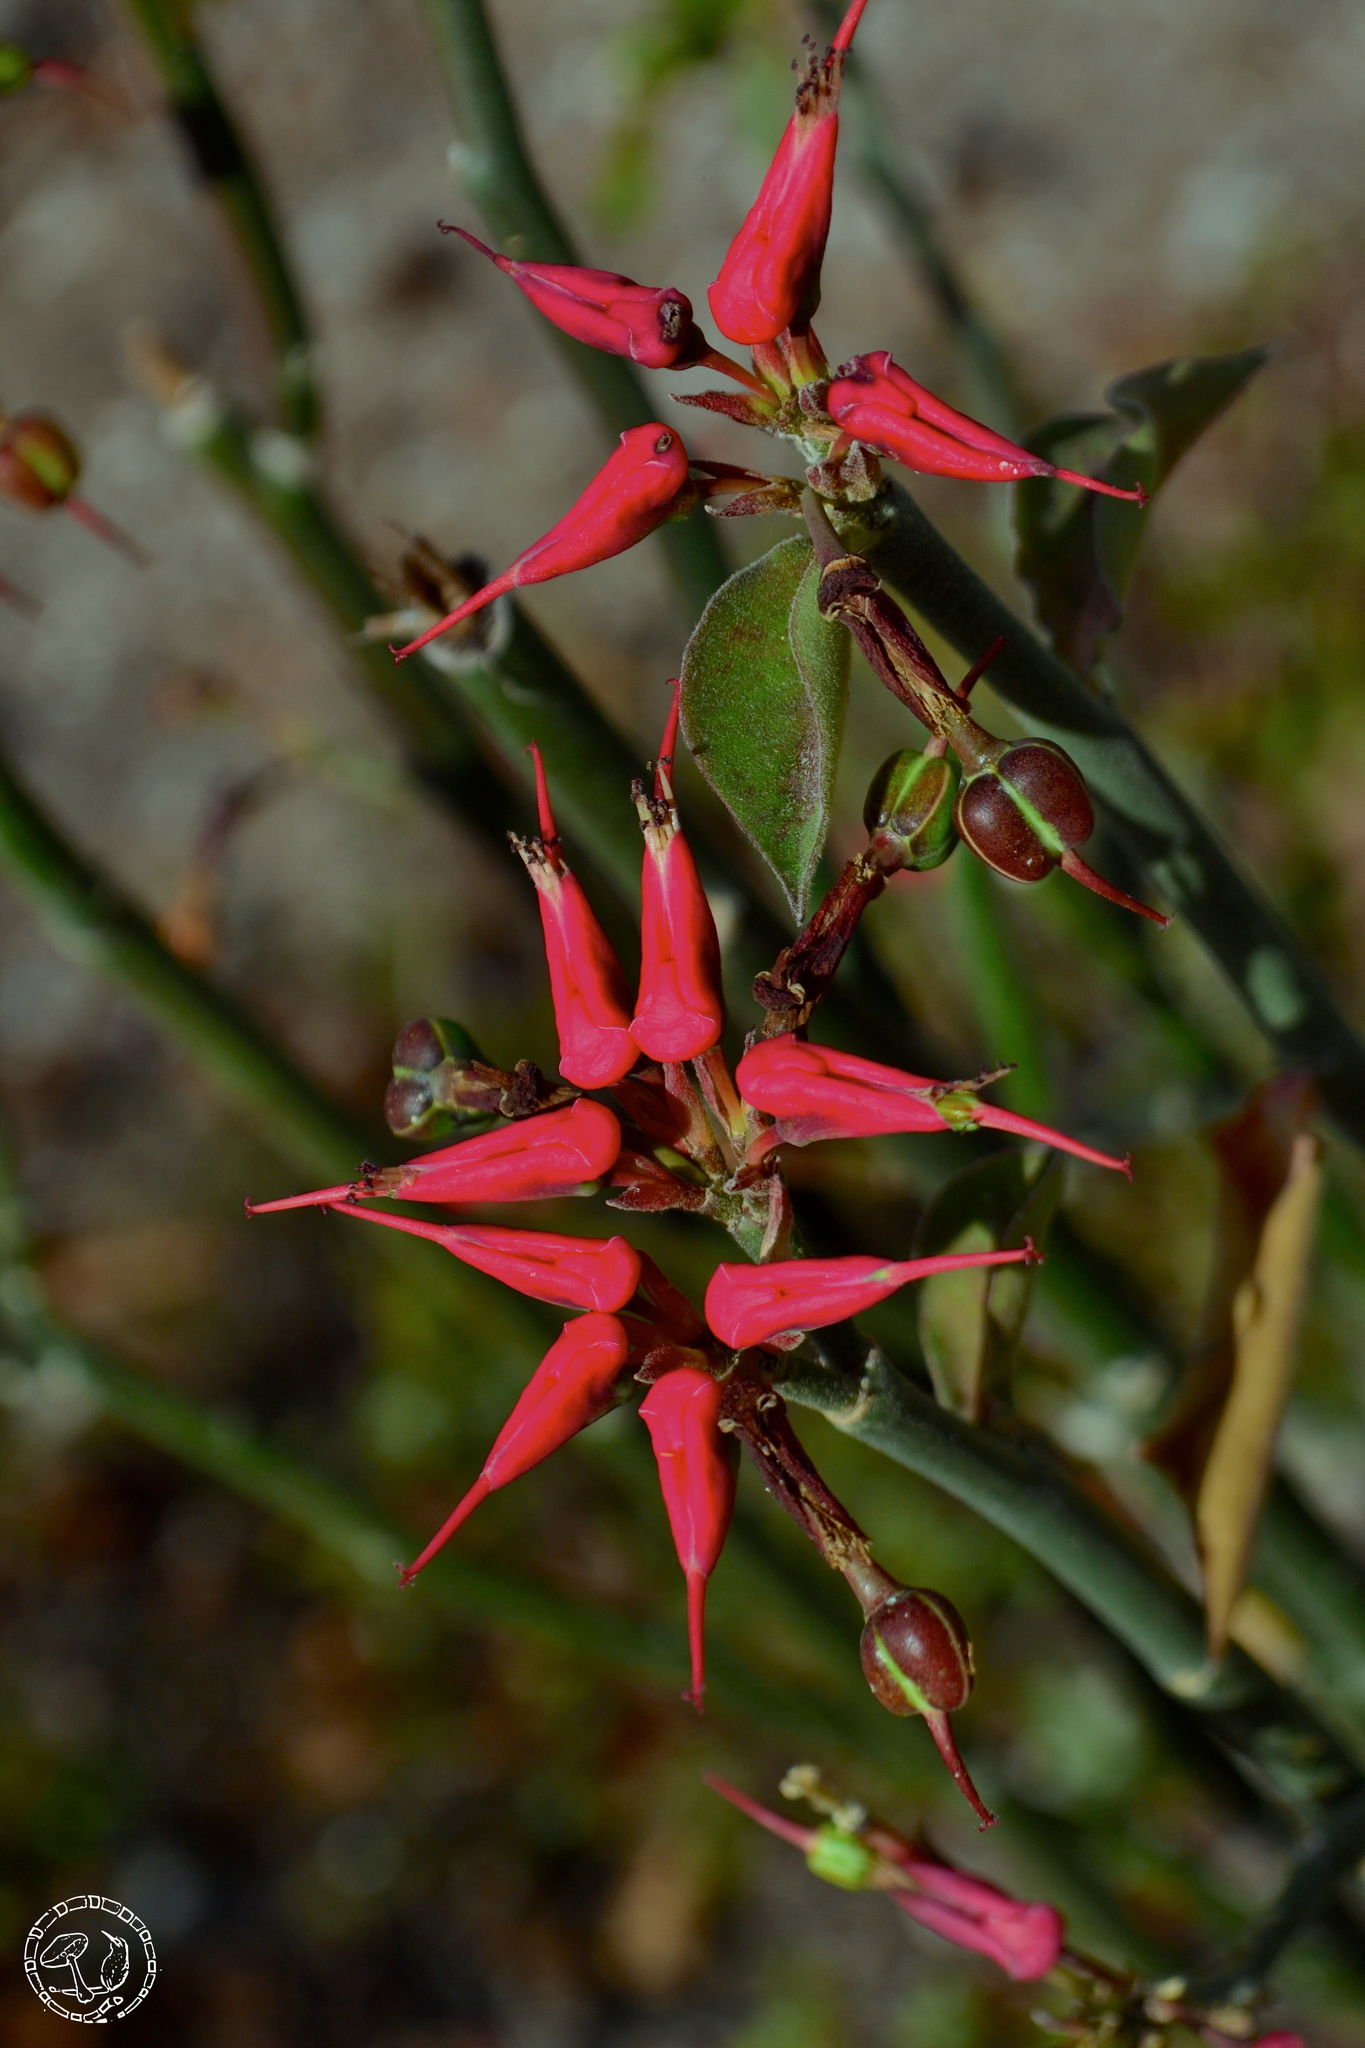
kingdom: Plantae
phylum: Tracheophyta
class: Magnoliopsida
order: Malpighiales
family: Euphorbiaceae
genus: Euphorbia
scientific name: Euphorbia tithymaloides
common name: Slipperplant
